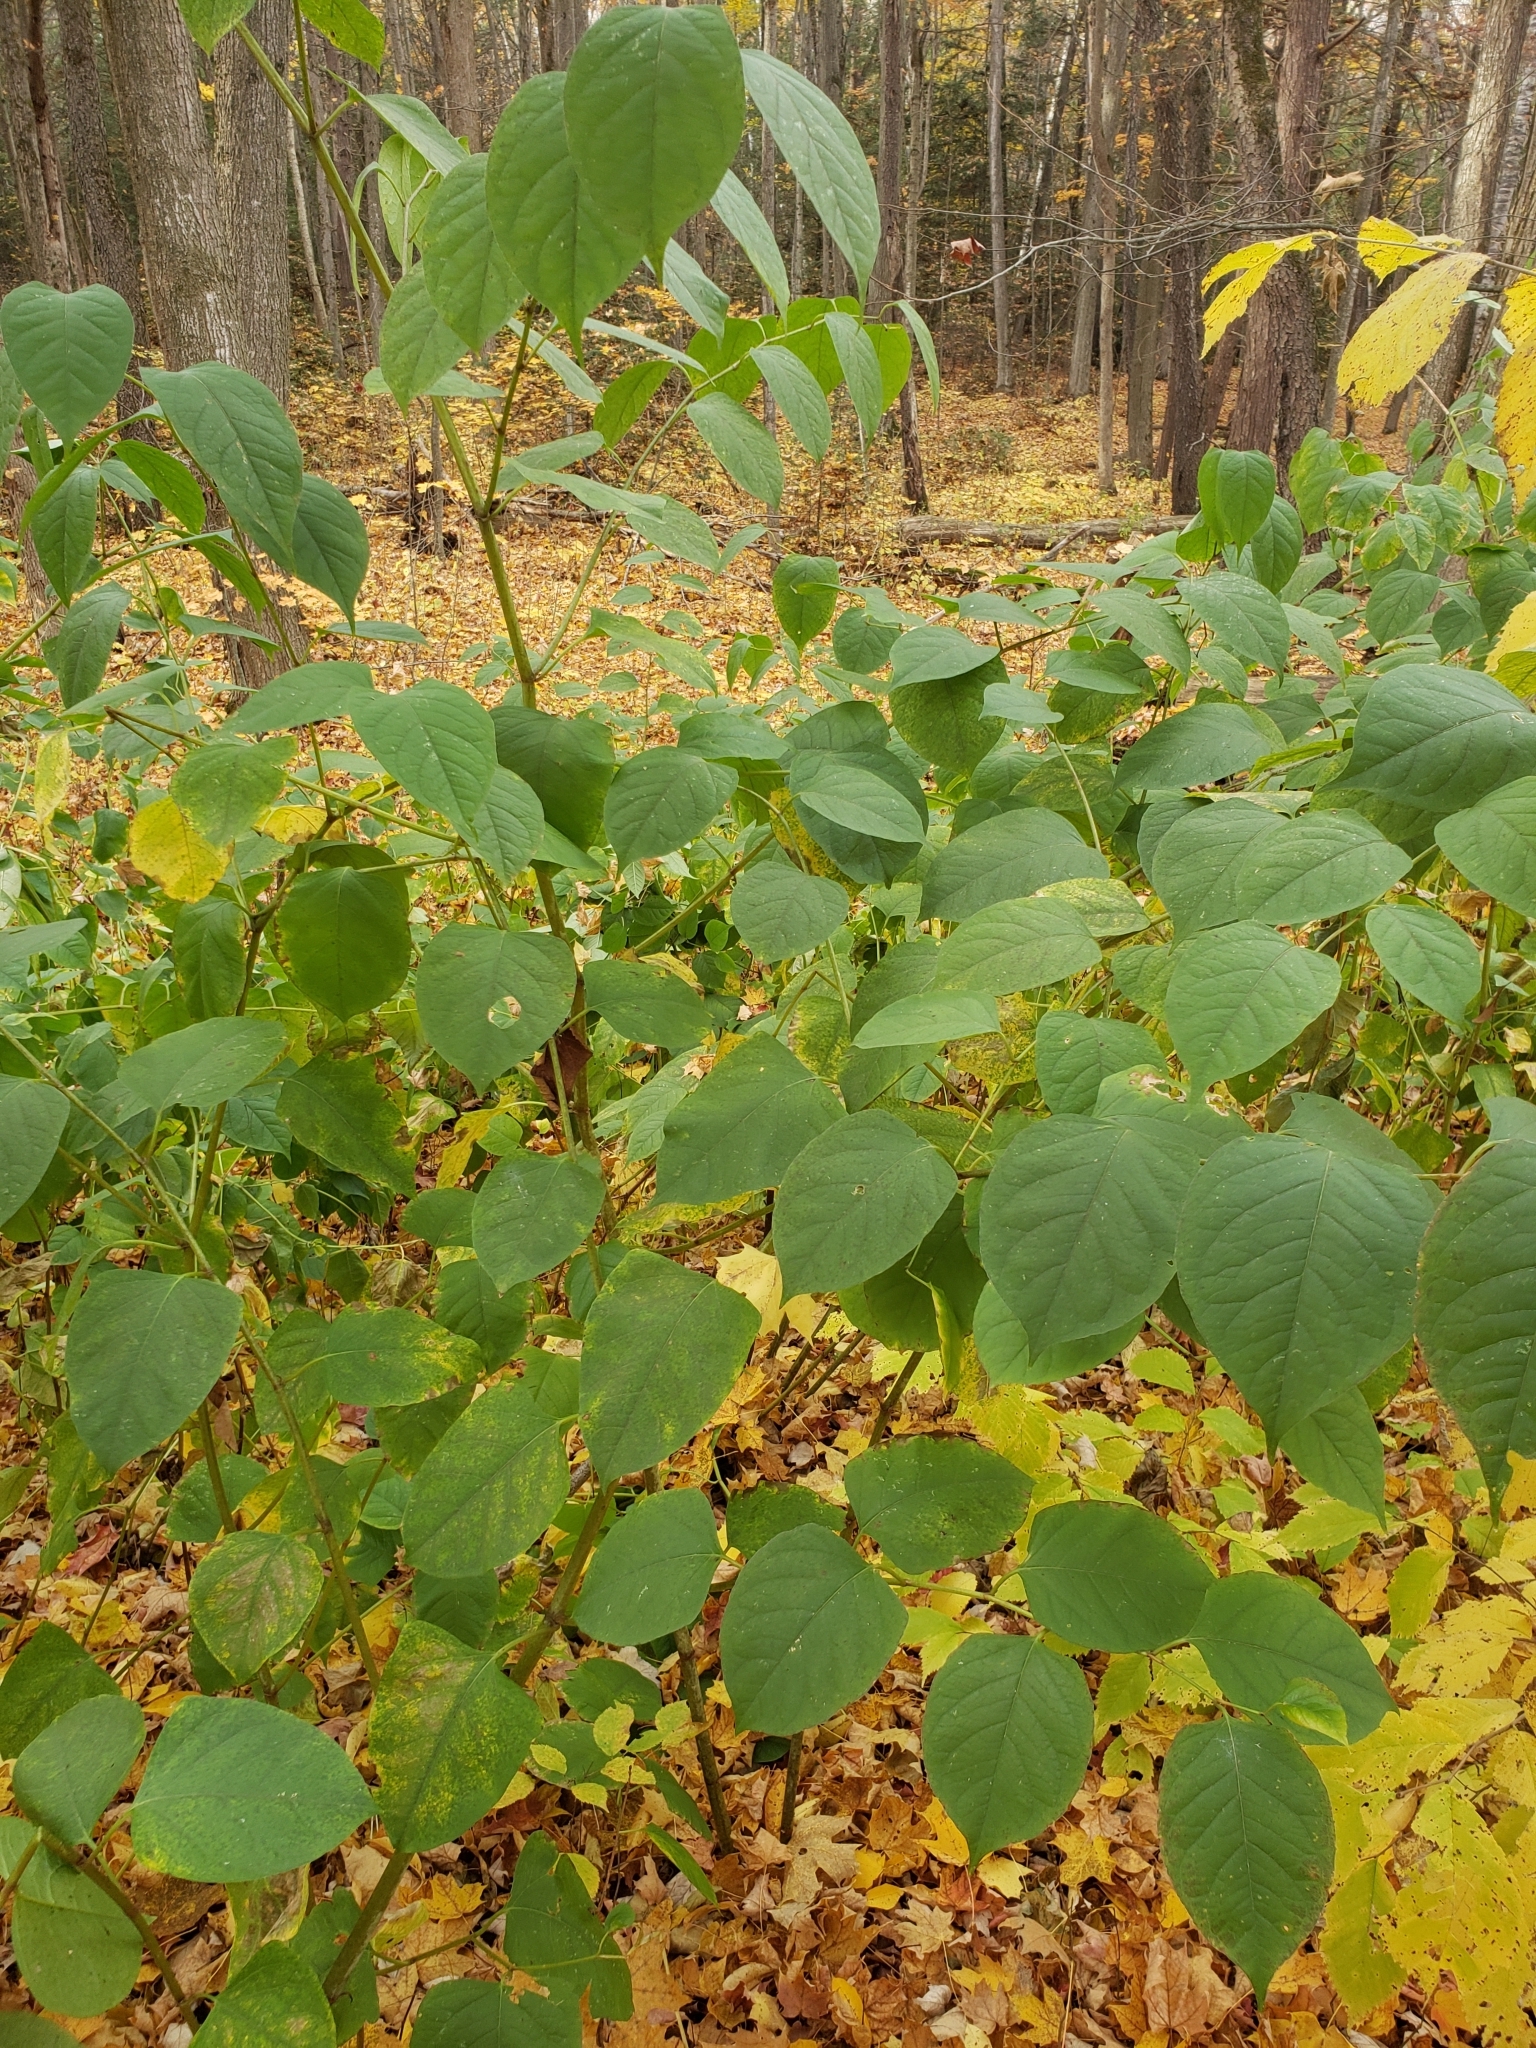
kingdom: Plantae
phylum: Tracheophyta
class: Magnoliopsida
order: Caryophyllales
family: Polygonaceae
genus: Reynoutria
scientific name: Reynoutria japonica
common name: Japanese knotweed
